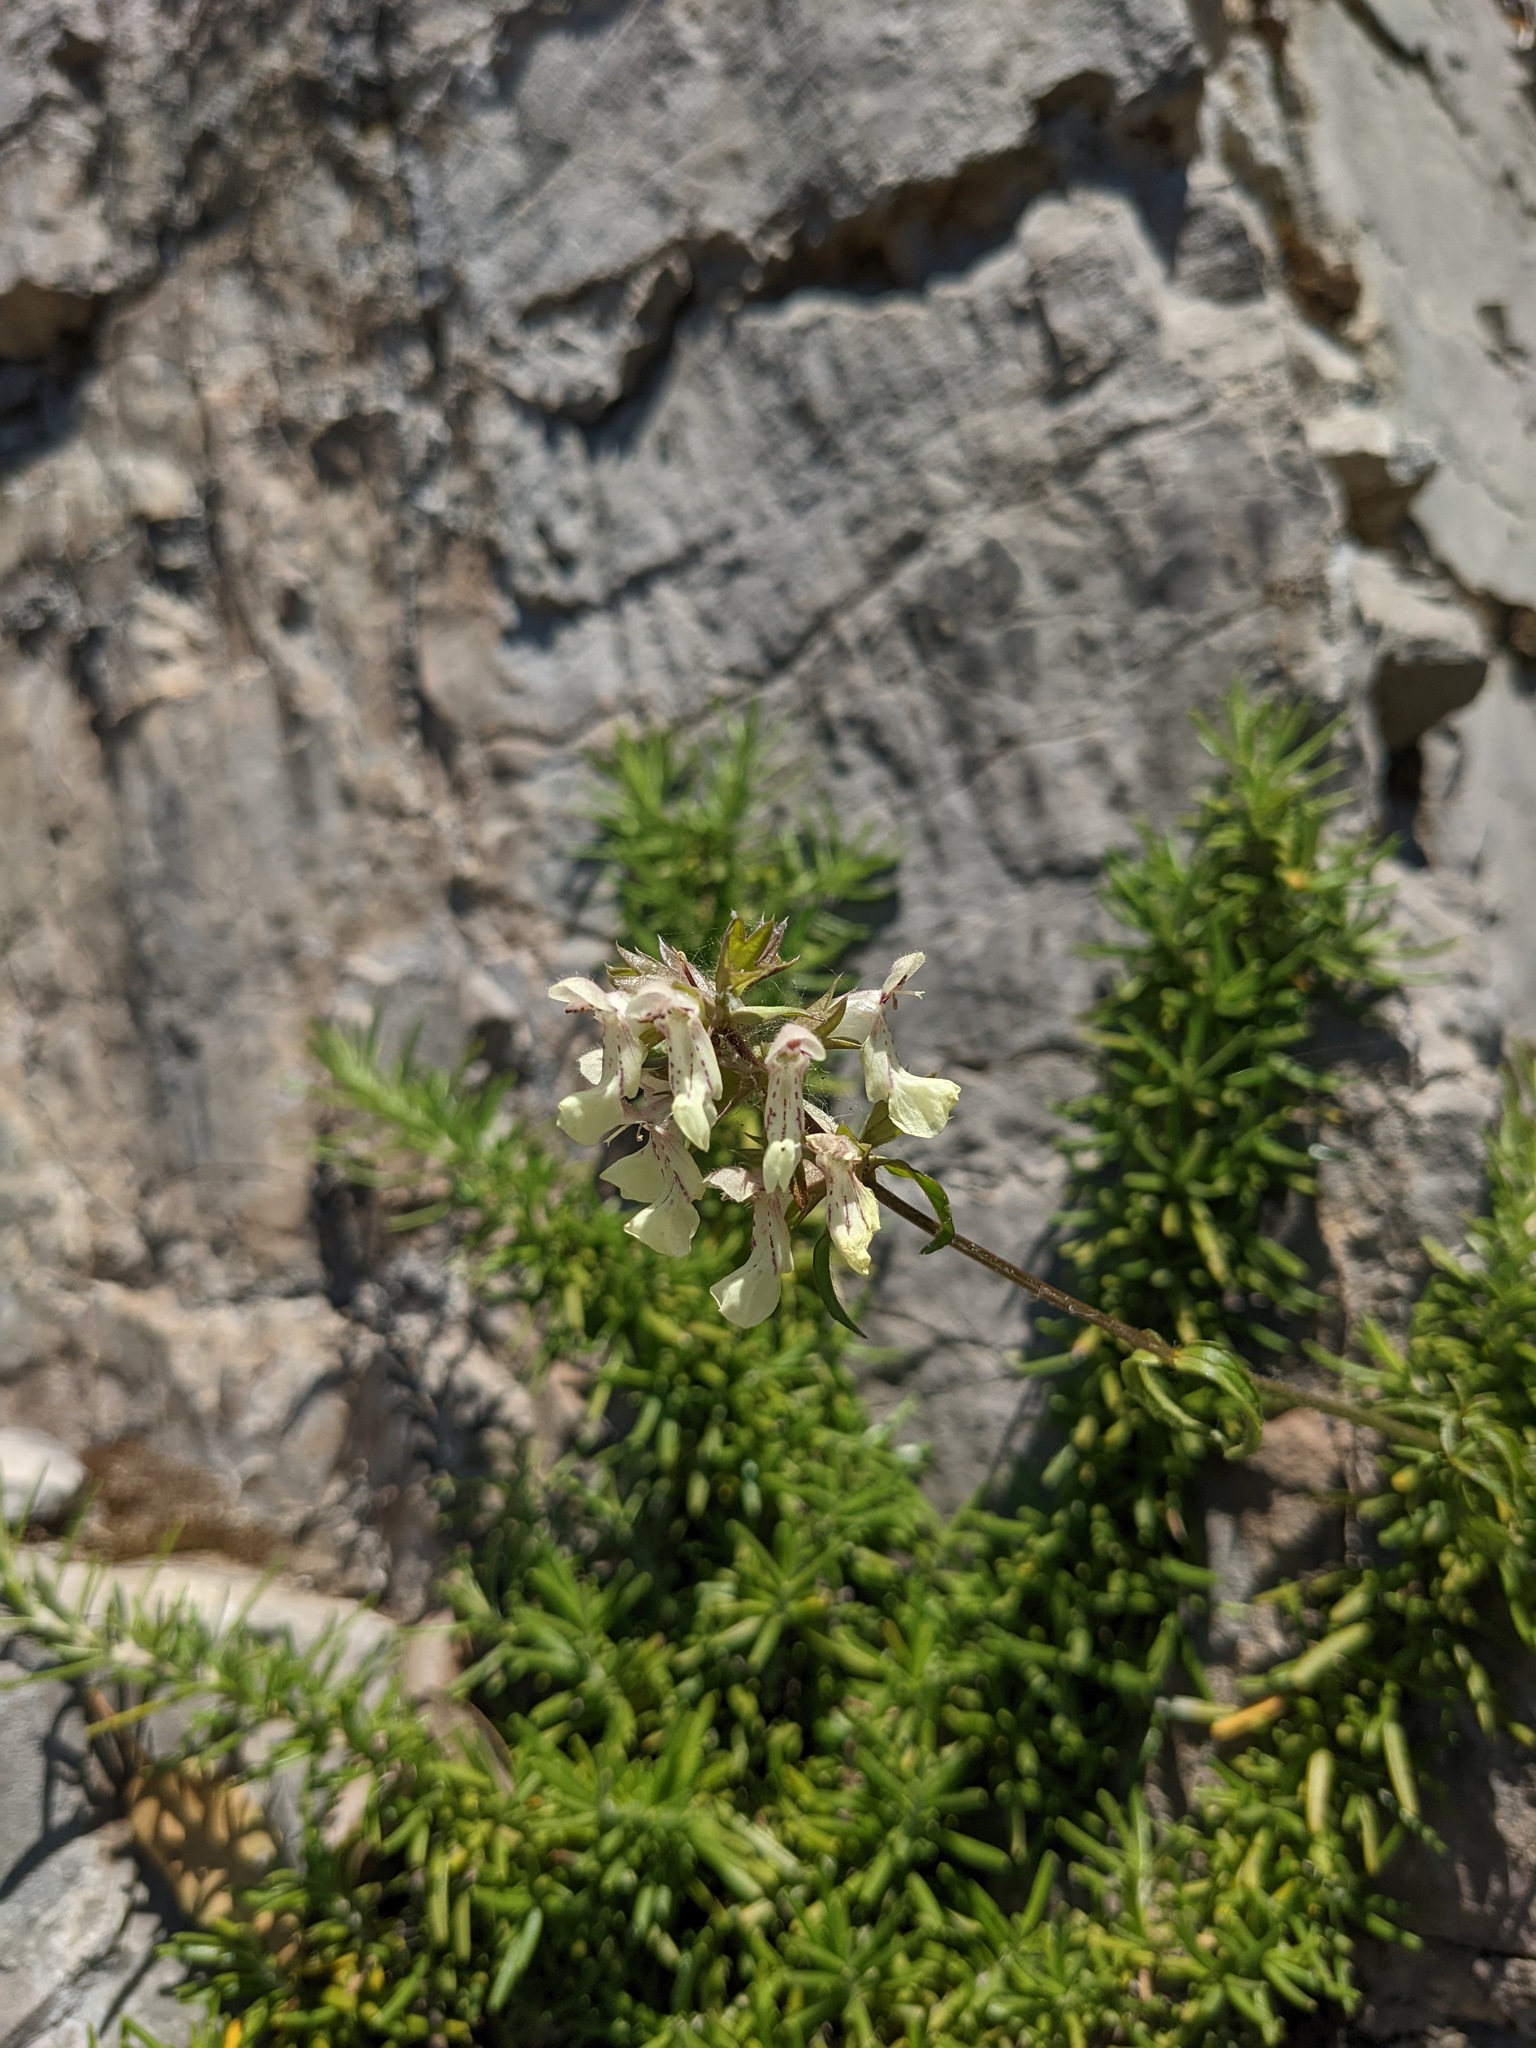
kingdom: Plantae
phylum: Tracheophyta
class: Magnoliopsida
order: Lamiales
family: Lamiaceae
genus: Stachys
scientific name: Stachys recta
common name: Perennial yellow-woundwort
